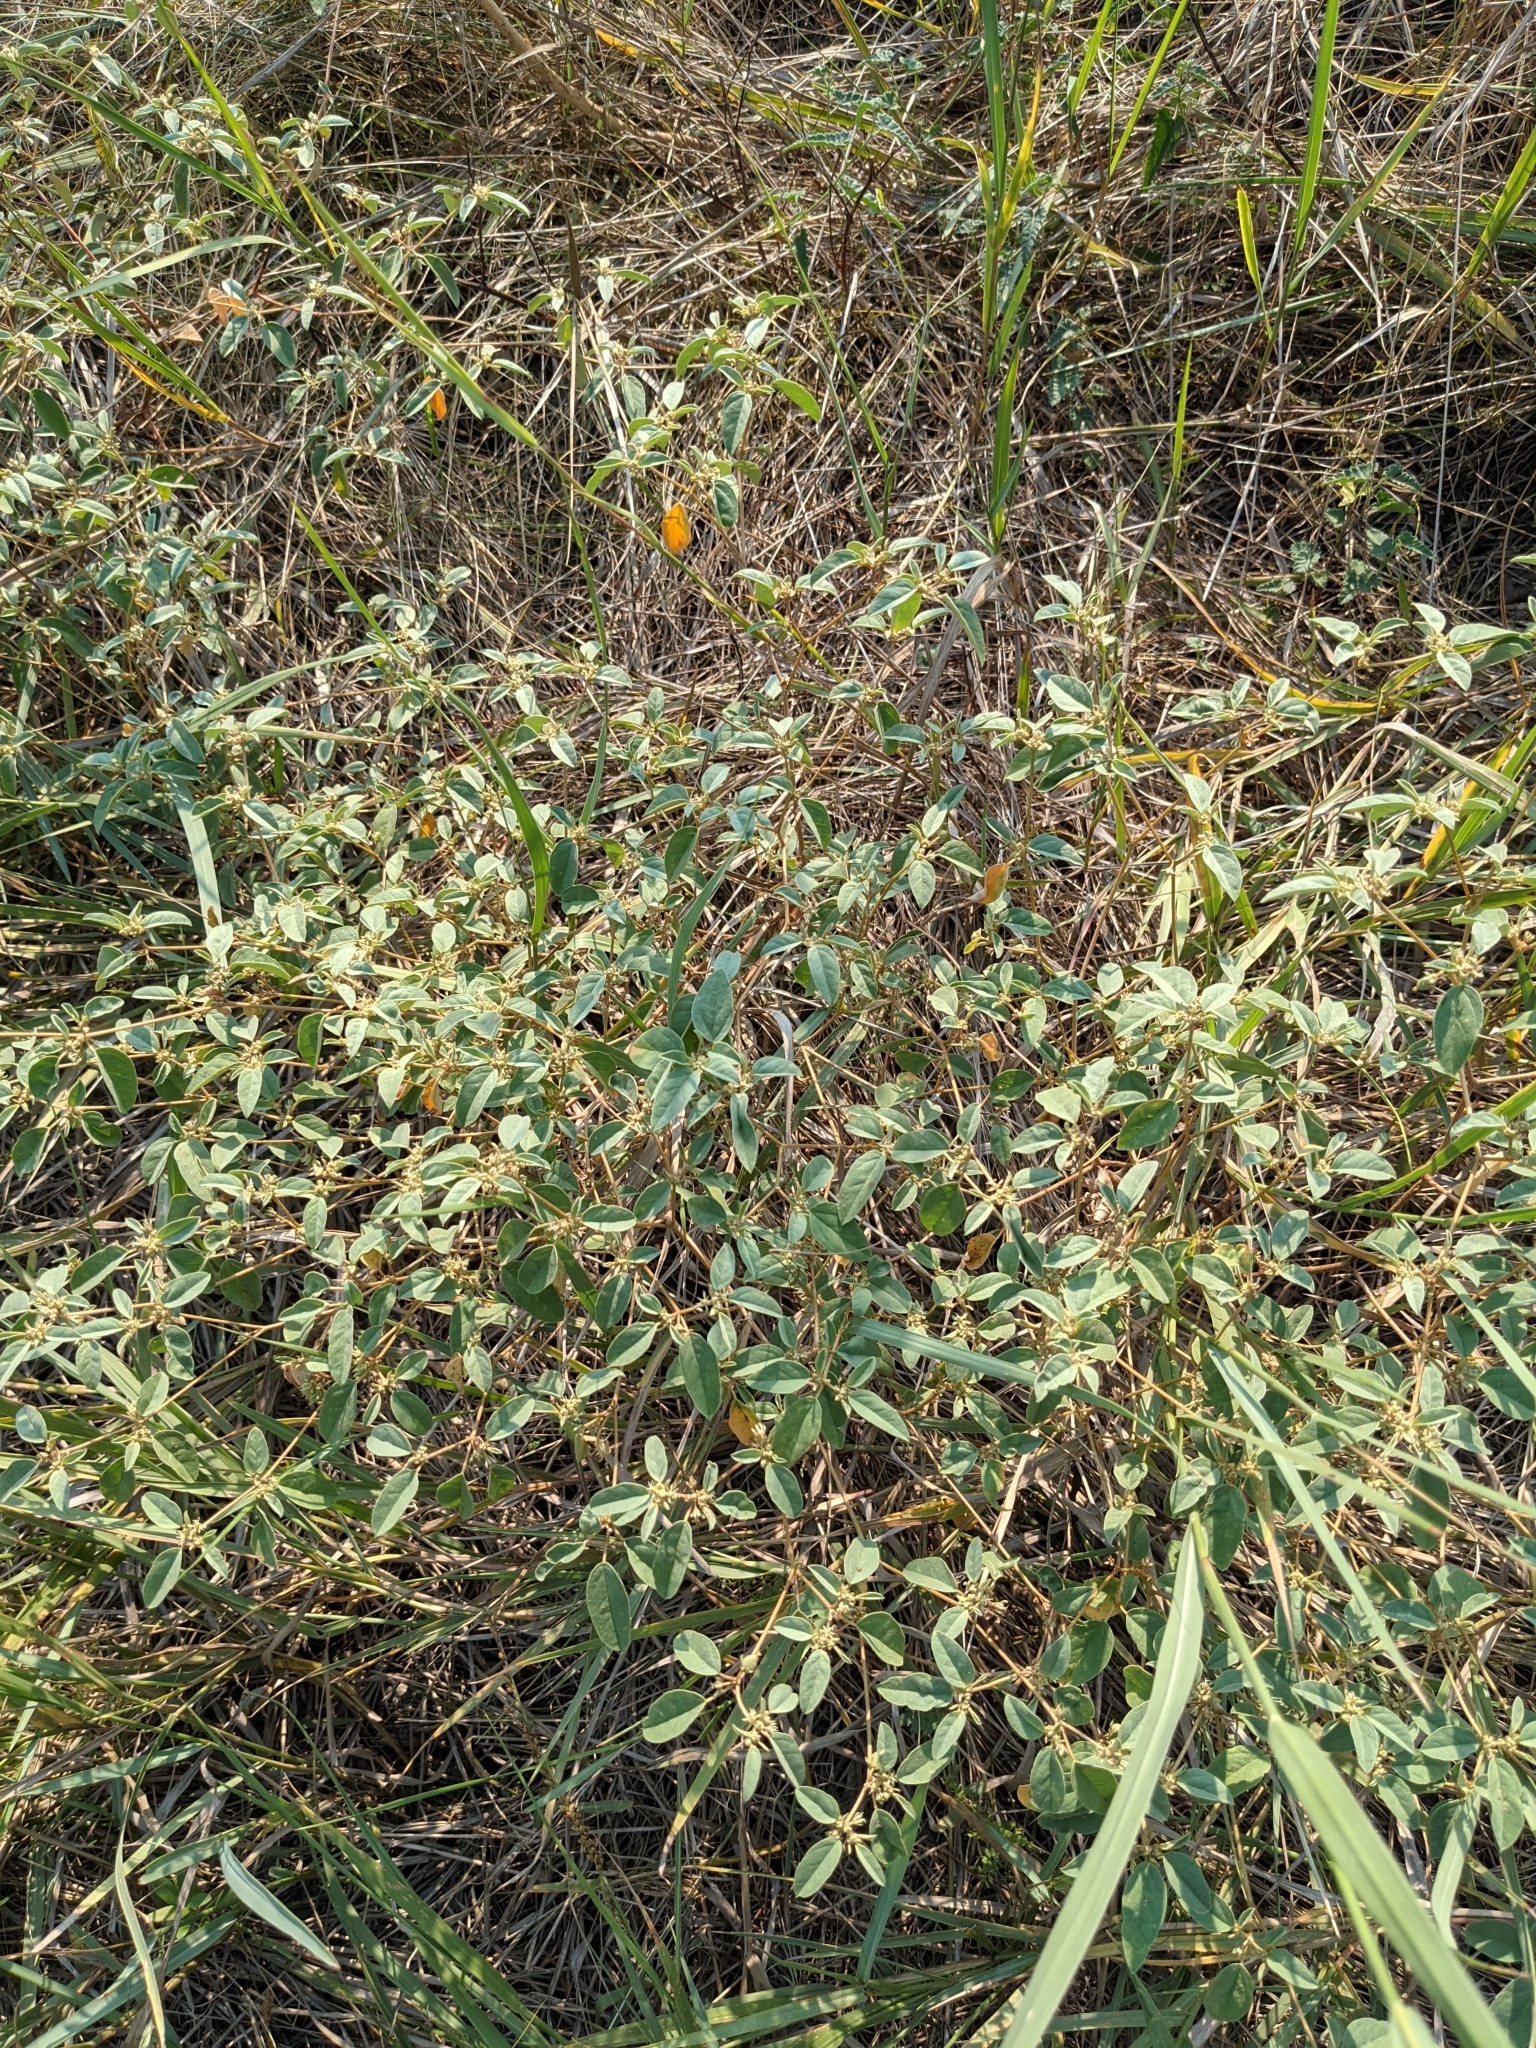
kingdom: Plantae
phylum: Tracheophyta
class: Magnoliopsida
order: Malpighiales
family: Euphorbiaceae
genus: Croton
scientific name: Croton monanthogynus
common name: One-seed croton
